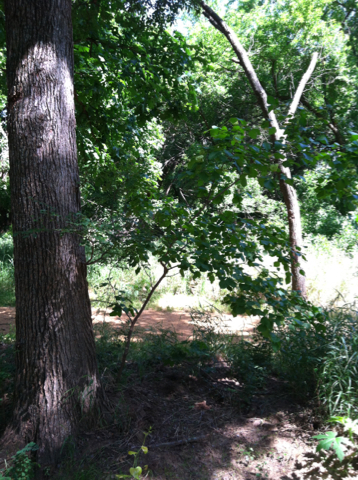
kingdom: Plantae
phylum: Tracheophyta
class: Magnoliopsida
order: Sapindales
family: Rutaceae
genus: Ptelea
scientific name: Ptelea trifoliata
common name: Common hop-tree
